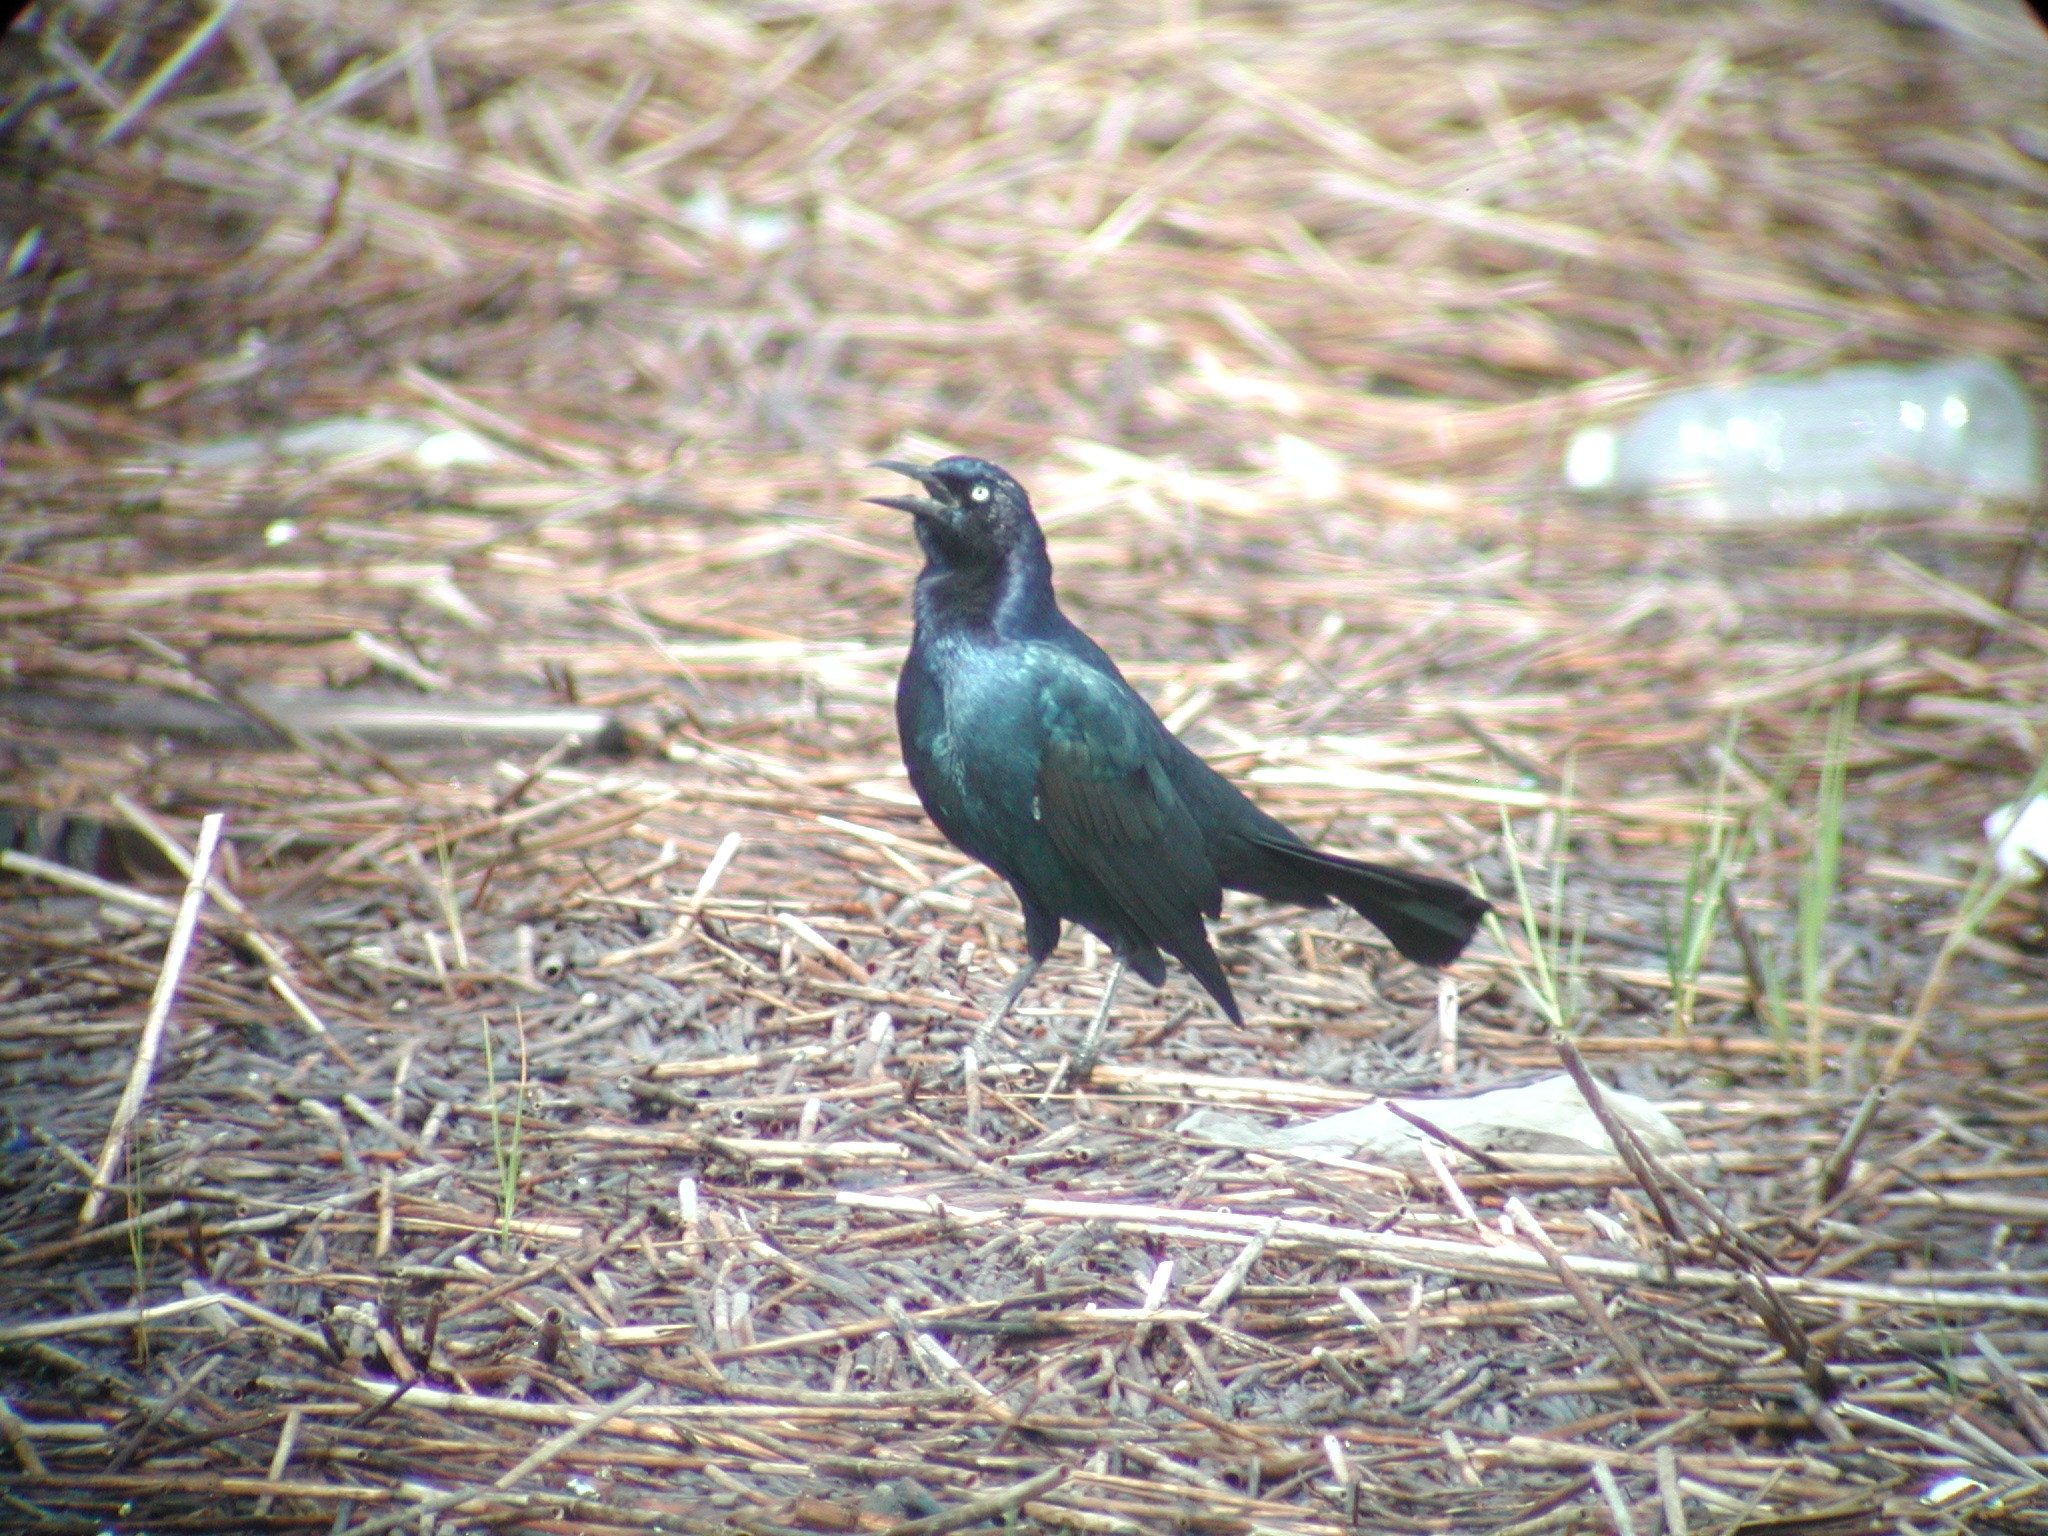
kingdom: Animalia
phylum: Chordata
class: Aves
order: Passeriformes
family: Icteridae
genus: Quiscalus
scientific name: Quiscalus major
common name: Boat-tailed grackle
